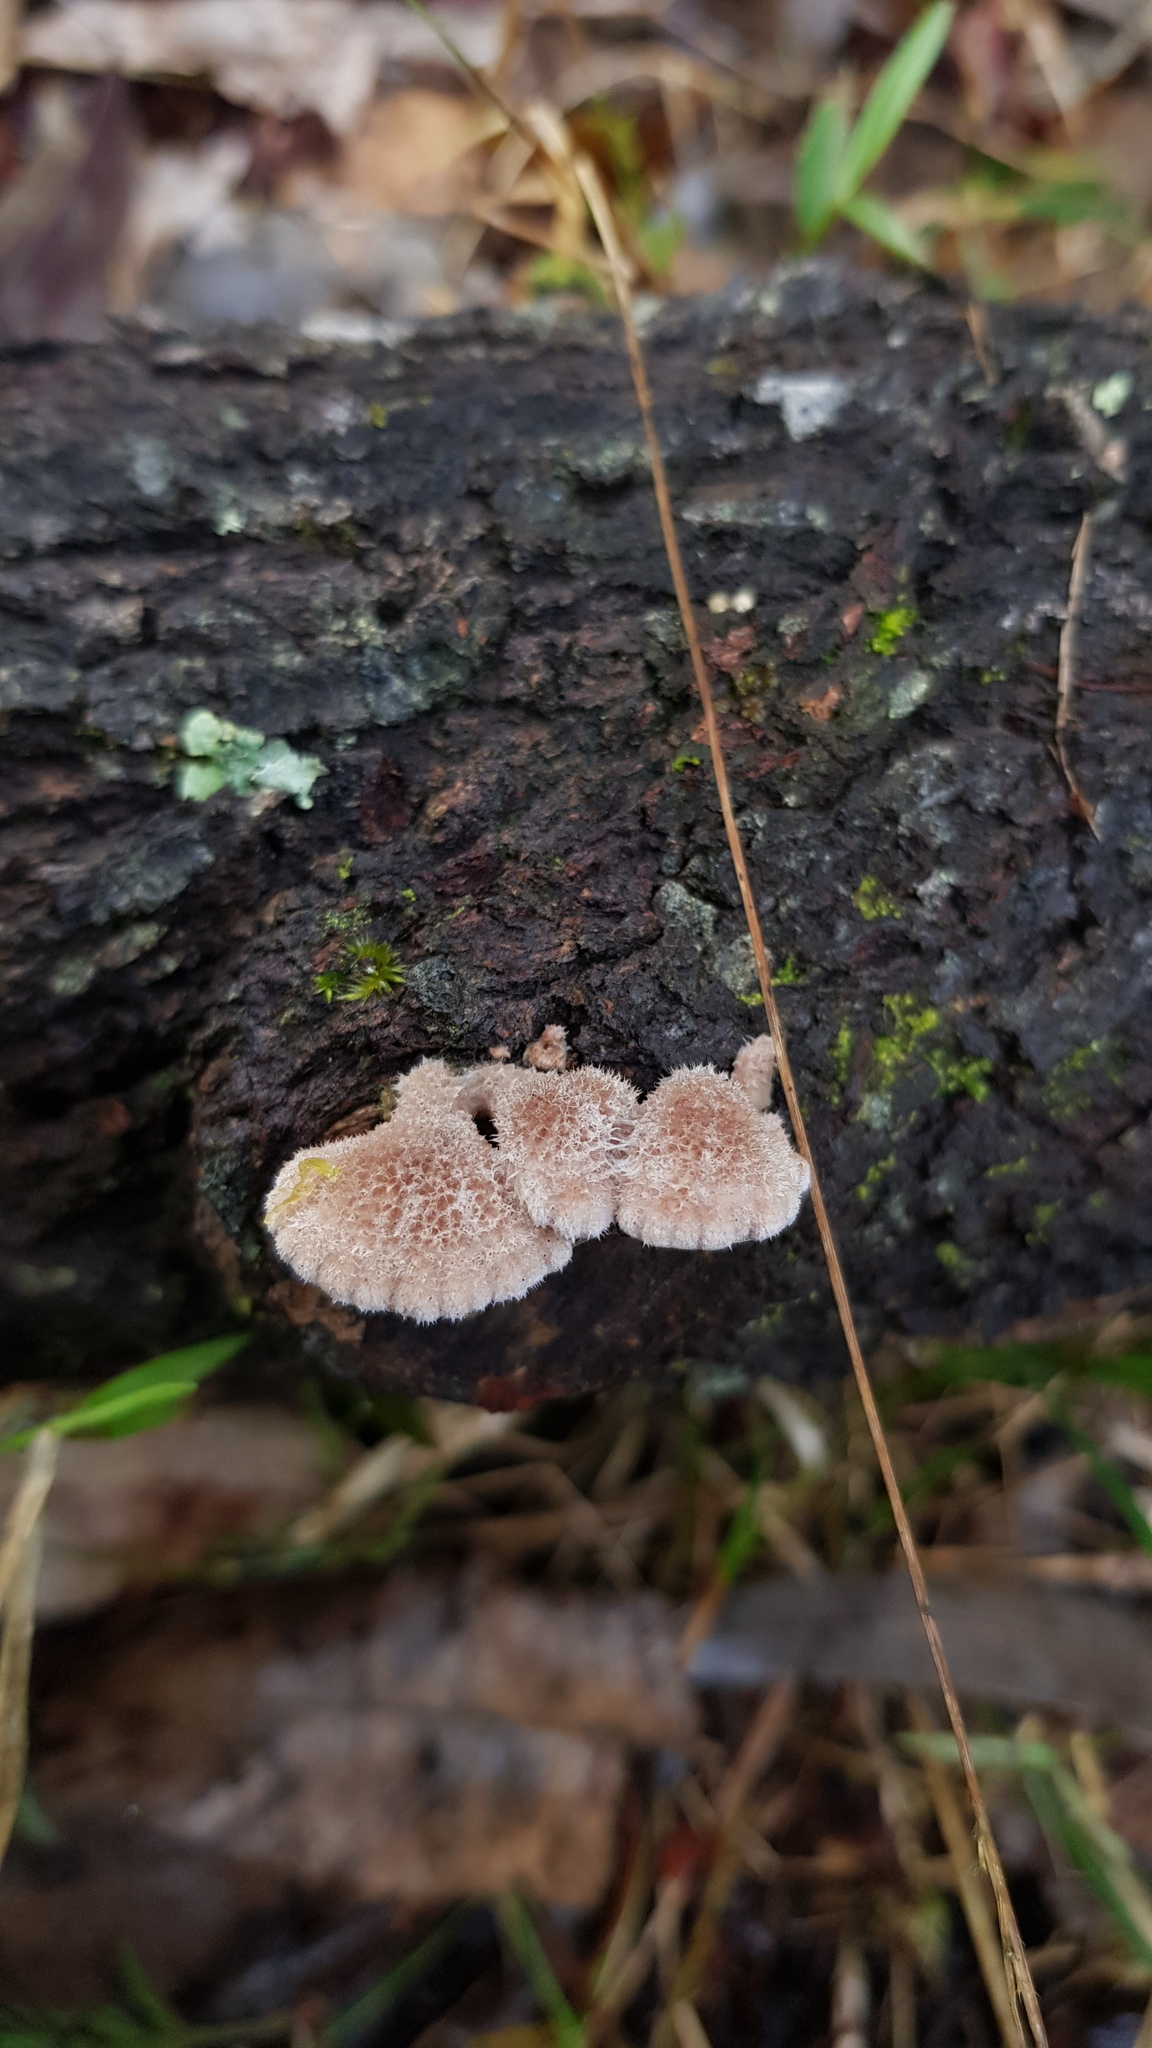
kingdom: Fungi
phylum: Basidiomycota
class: Agaricomycetes
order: Agaricales
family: Schizophyllaceae
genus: Schizophyllum
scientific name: Schizophyllum commune
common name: Common porecrust
